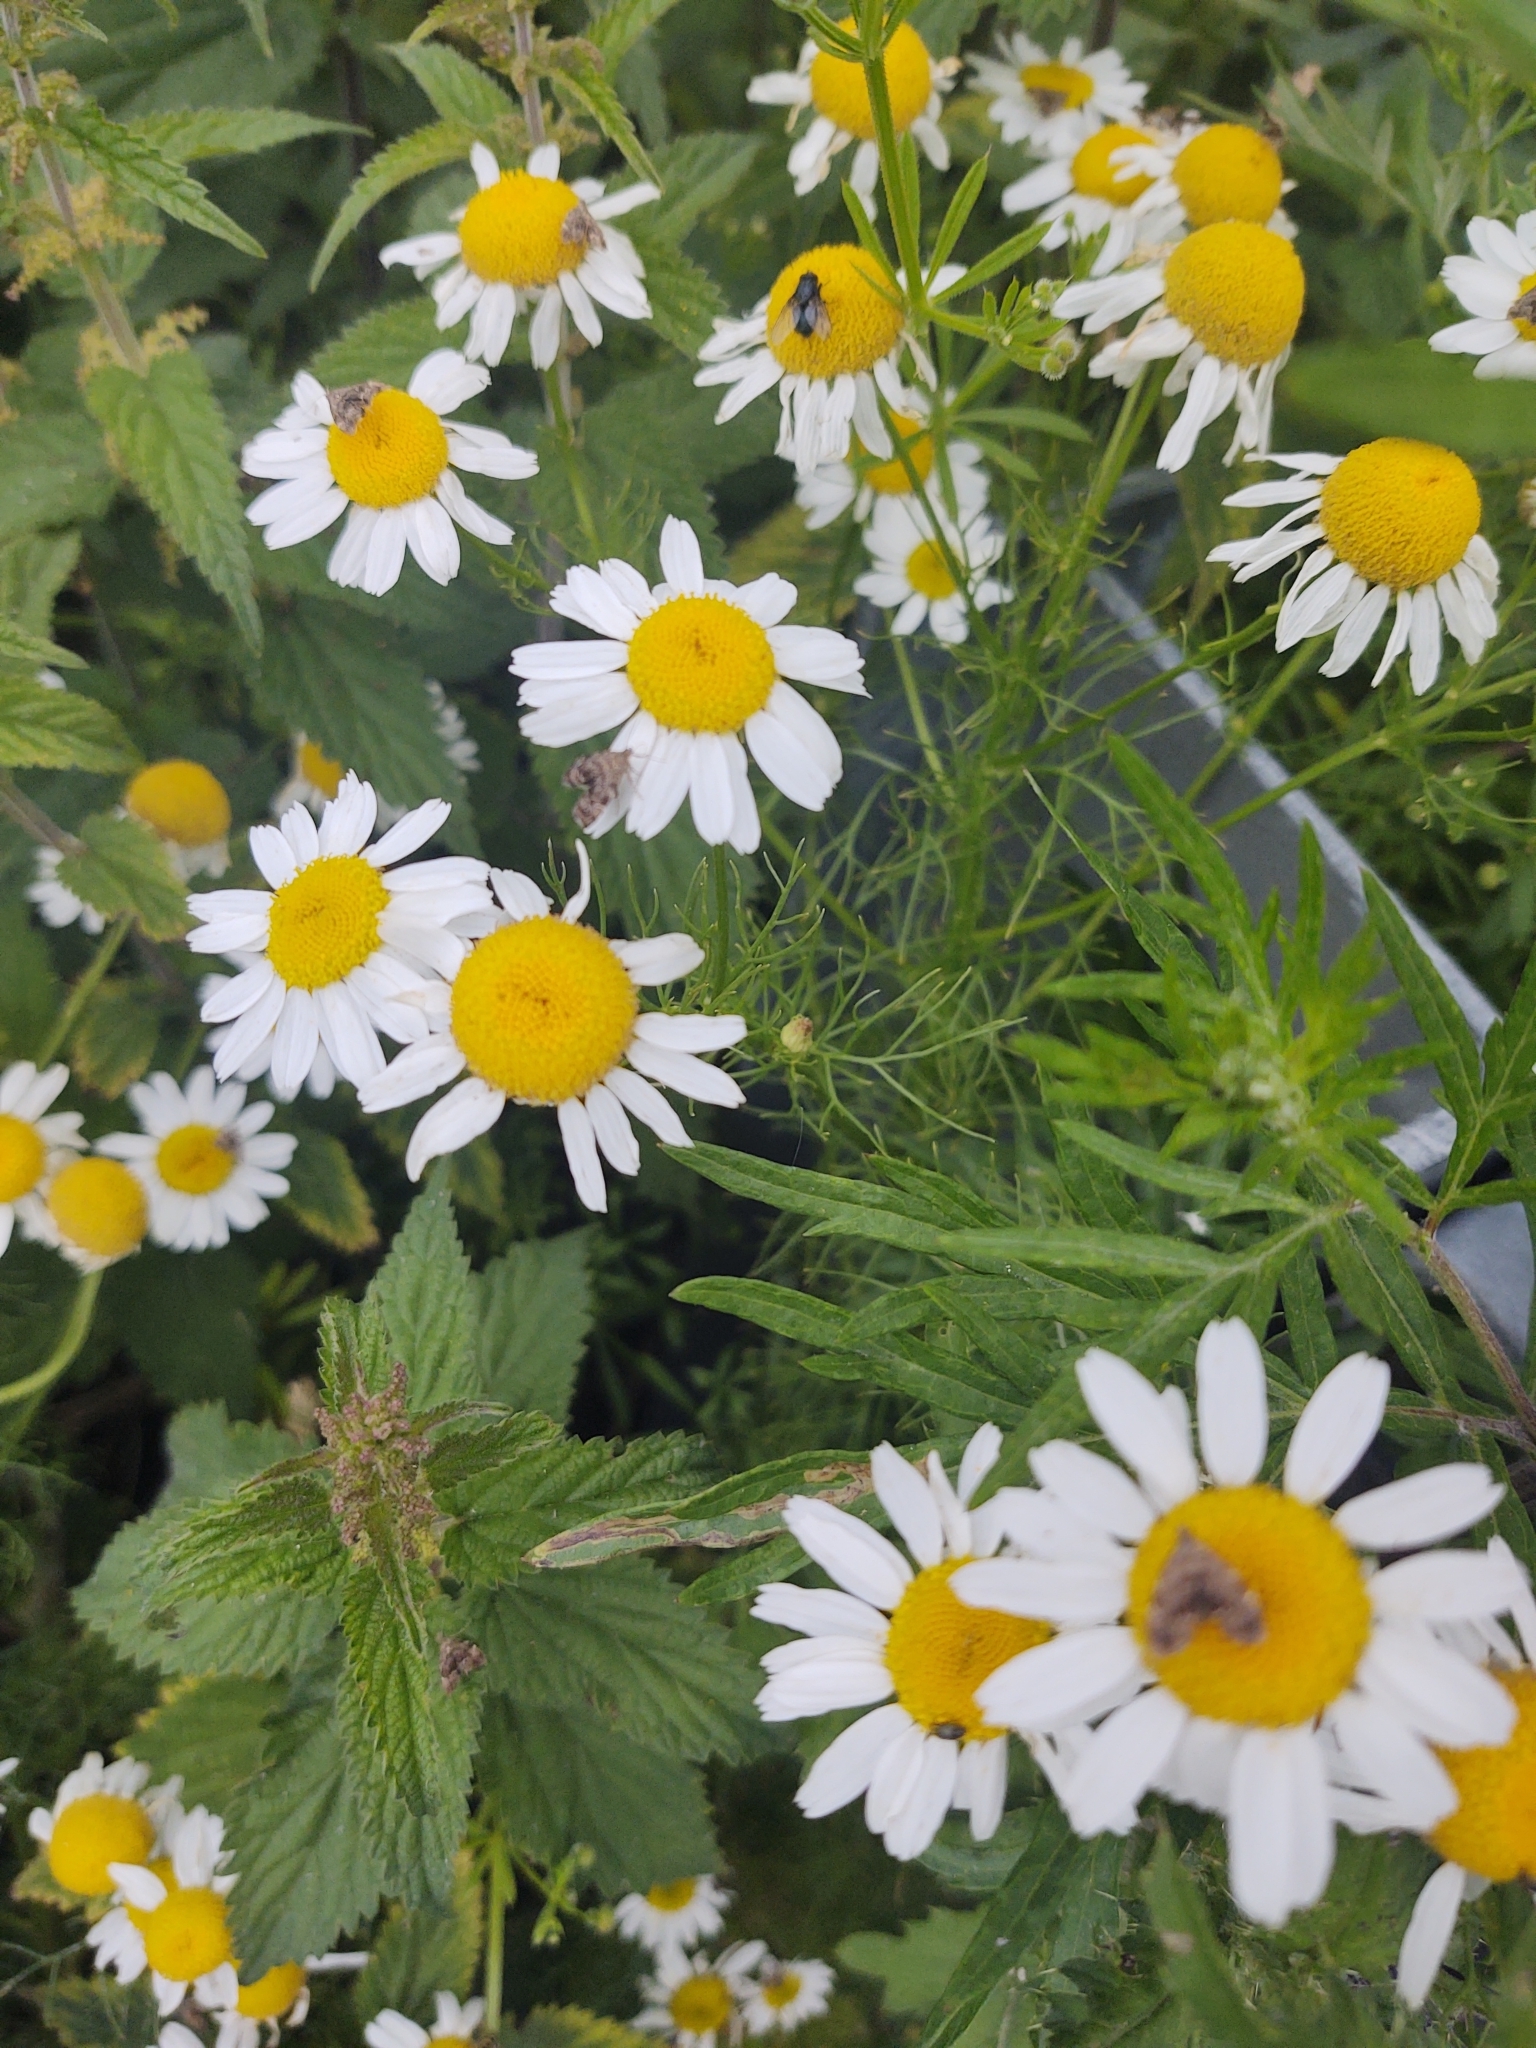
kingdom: Plantae
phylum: Tracheophyta
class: Magnoliopsida
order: Asterales
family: Asteraceae
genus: Tripleurospermum
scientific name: Tripleurospermum inodorum
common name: Scentless mayweed
